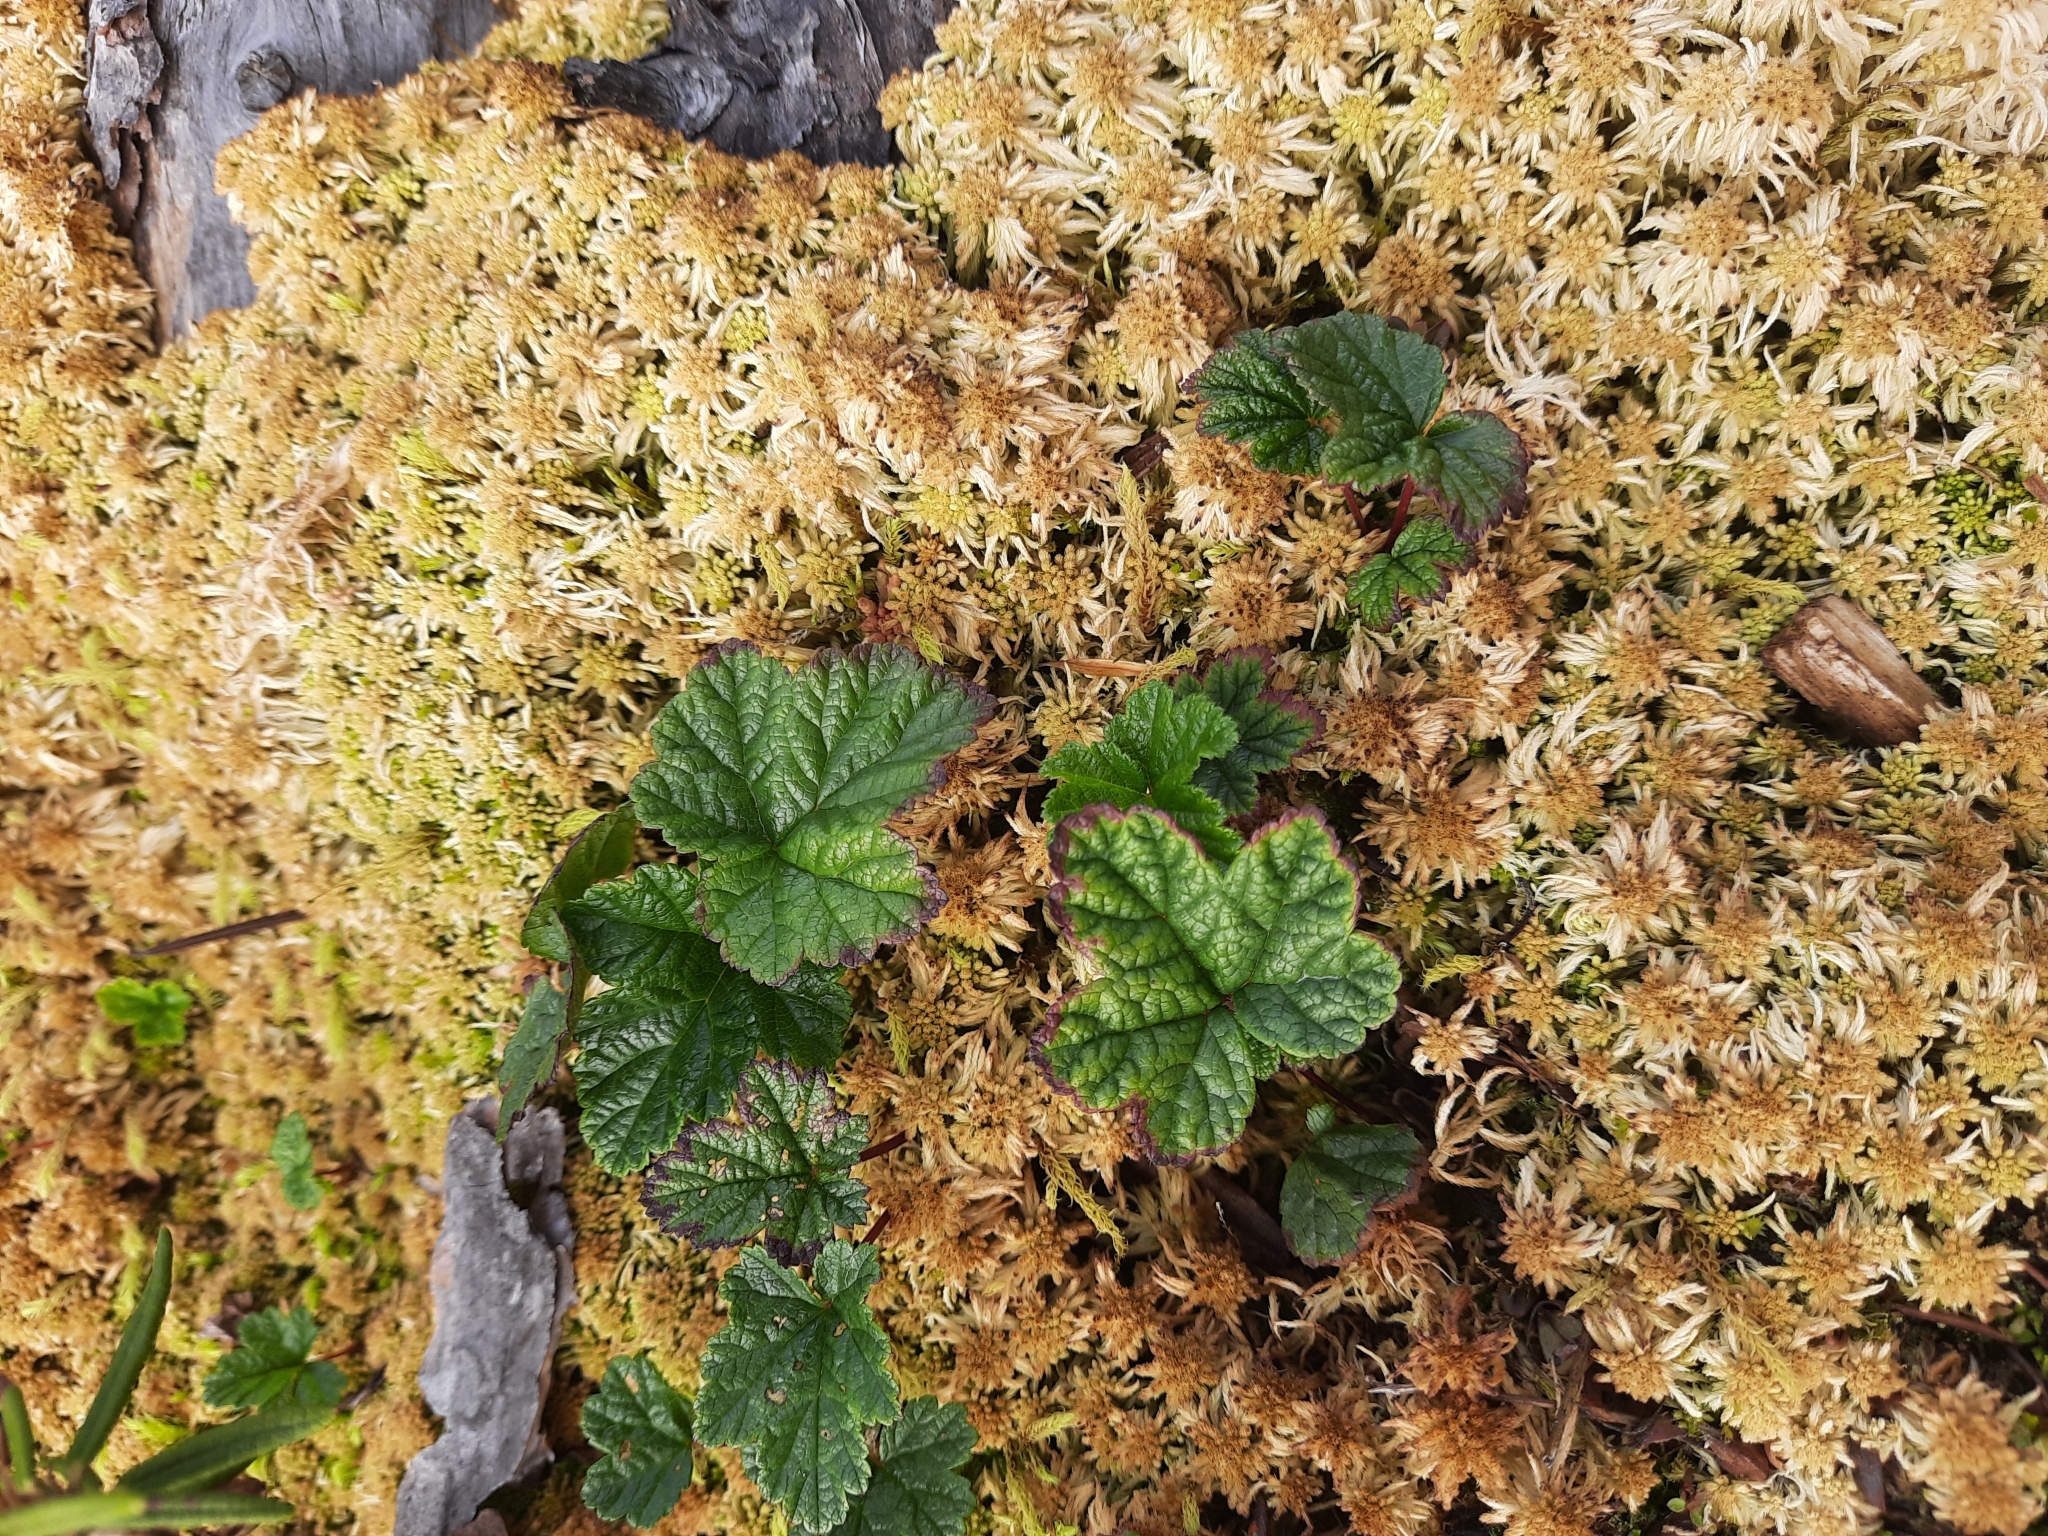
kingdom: Plantae
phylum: Tracheophyta
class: Magnoliopsida
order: Rosales
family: Rosaceae
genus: Rubus
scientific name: Rubus chamaemorus
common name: Cloudberry
